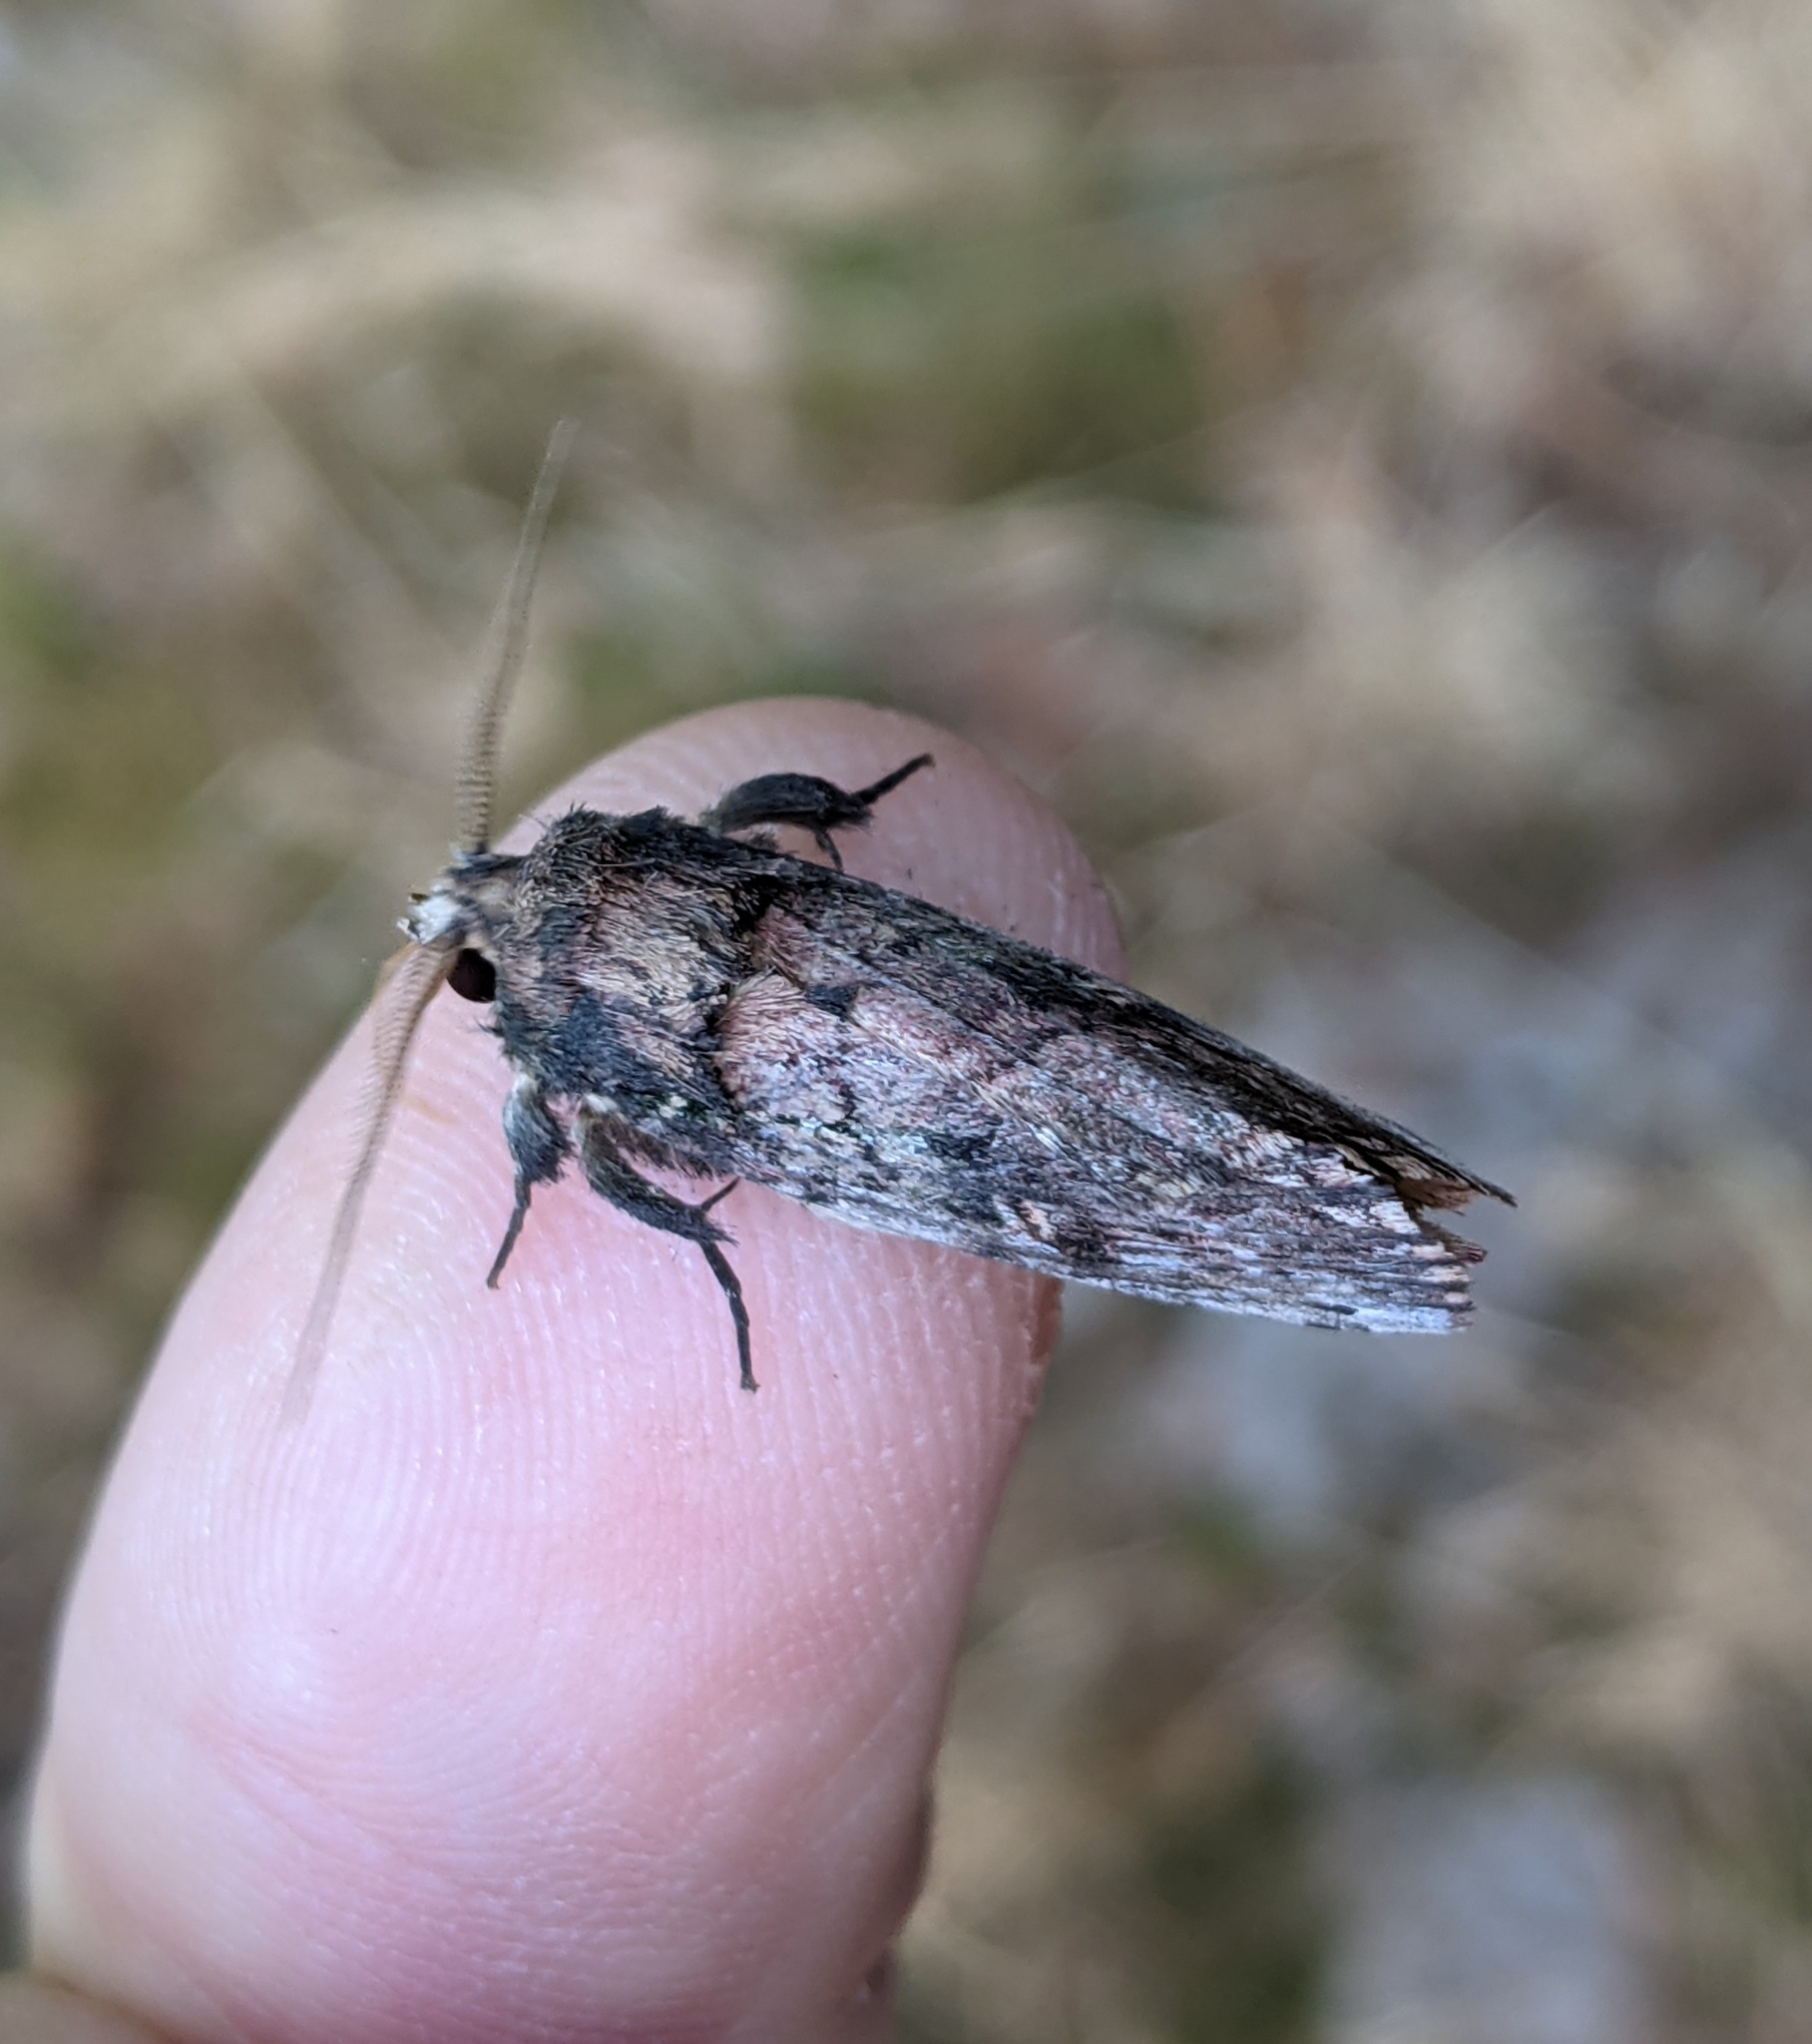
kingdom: Animalia
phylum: Arthropoda
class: Insecta
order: Lepidoptera
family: Notodontidae
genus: Schizura
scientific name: Schizura ipomaeae
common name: Morning-glory prominent
